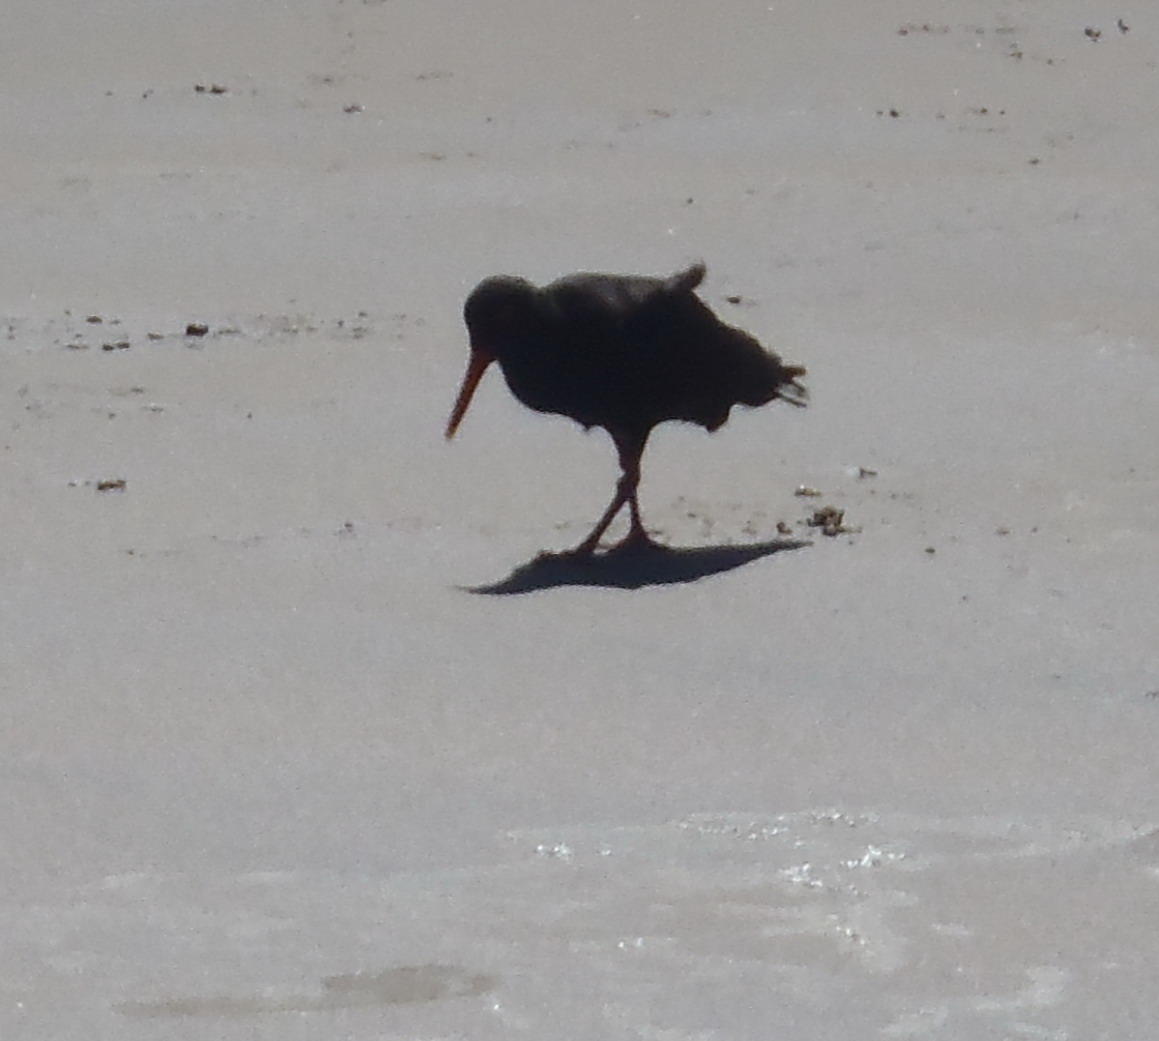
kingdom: Animalia
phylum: Chordata
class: Aves
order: Charadriiformes
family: Haematopodidae
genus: Haematopus
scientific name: Haematopus moquini
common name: African oystercatcher
